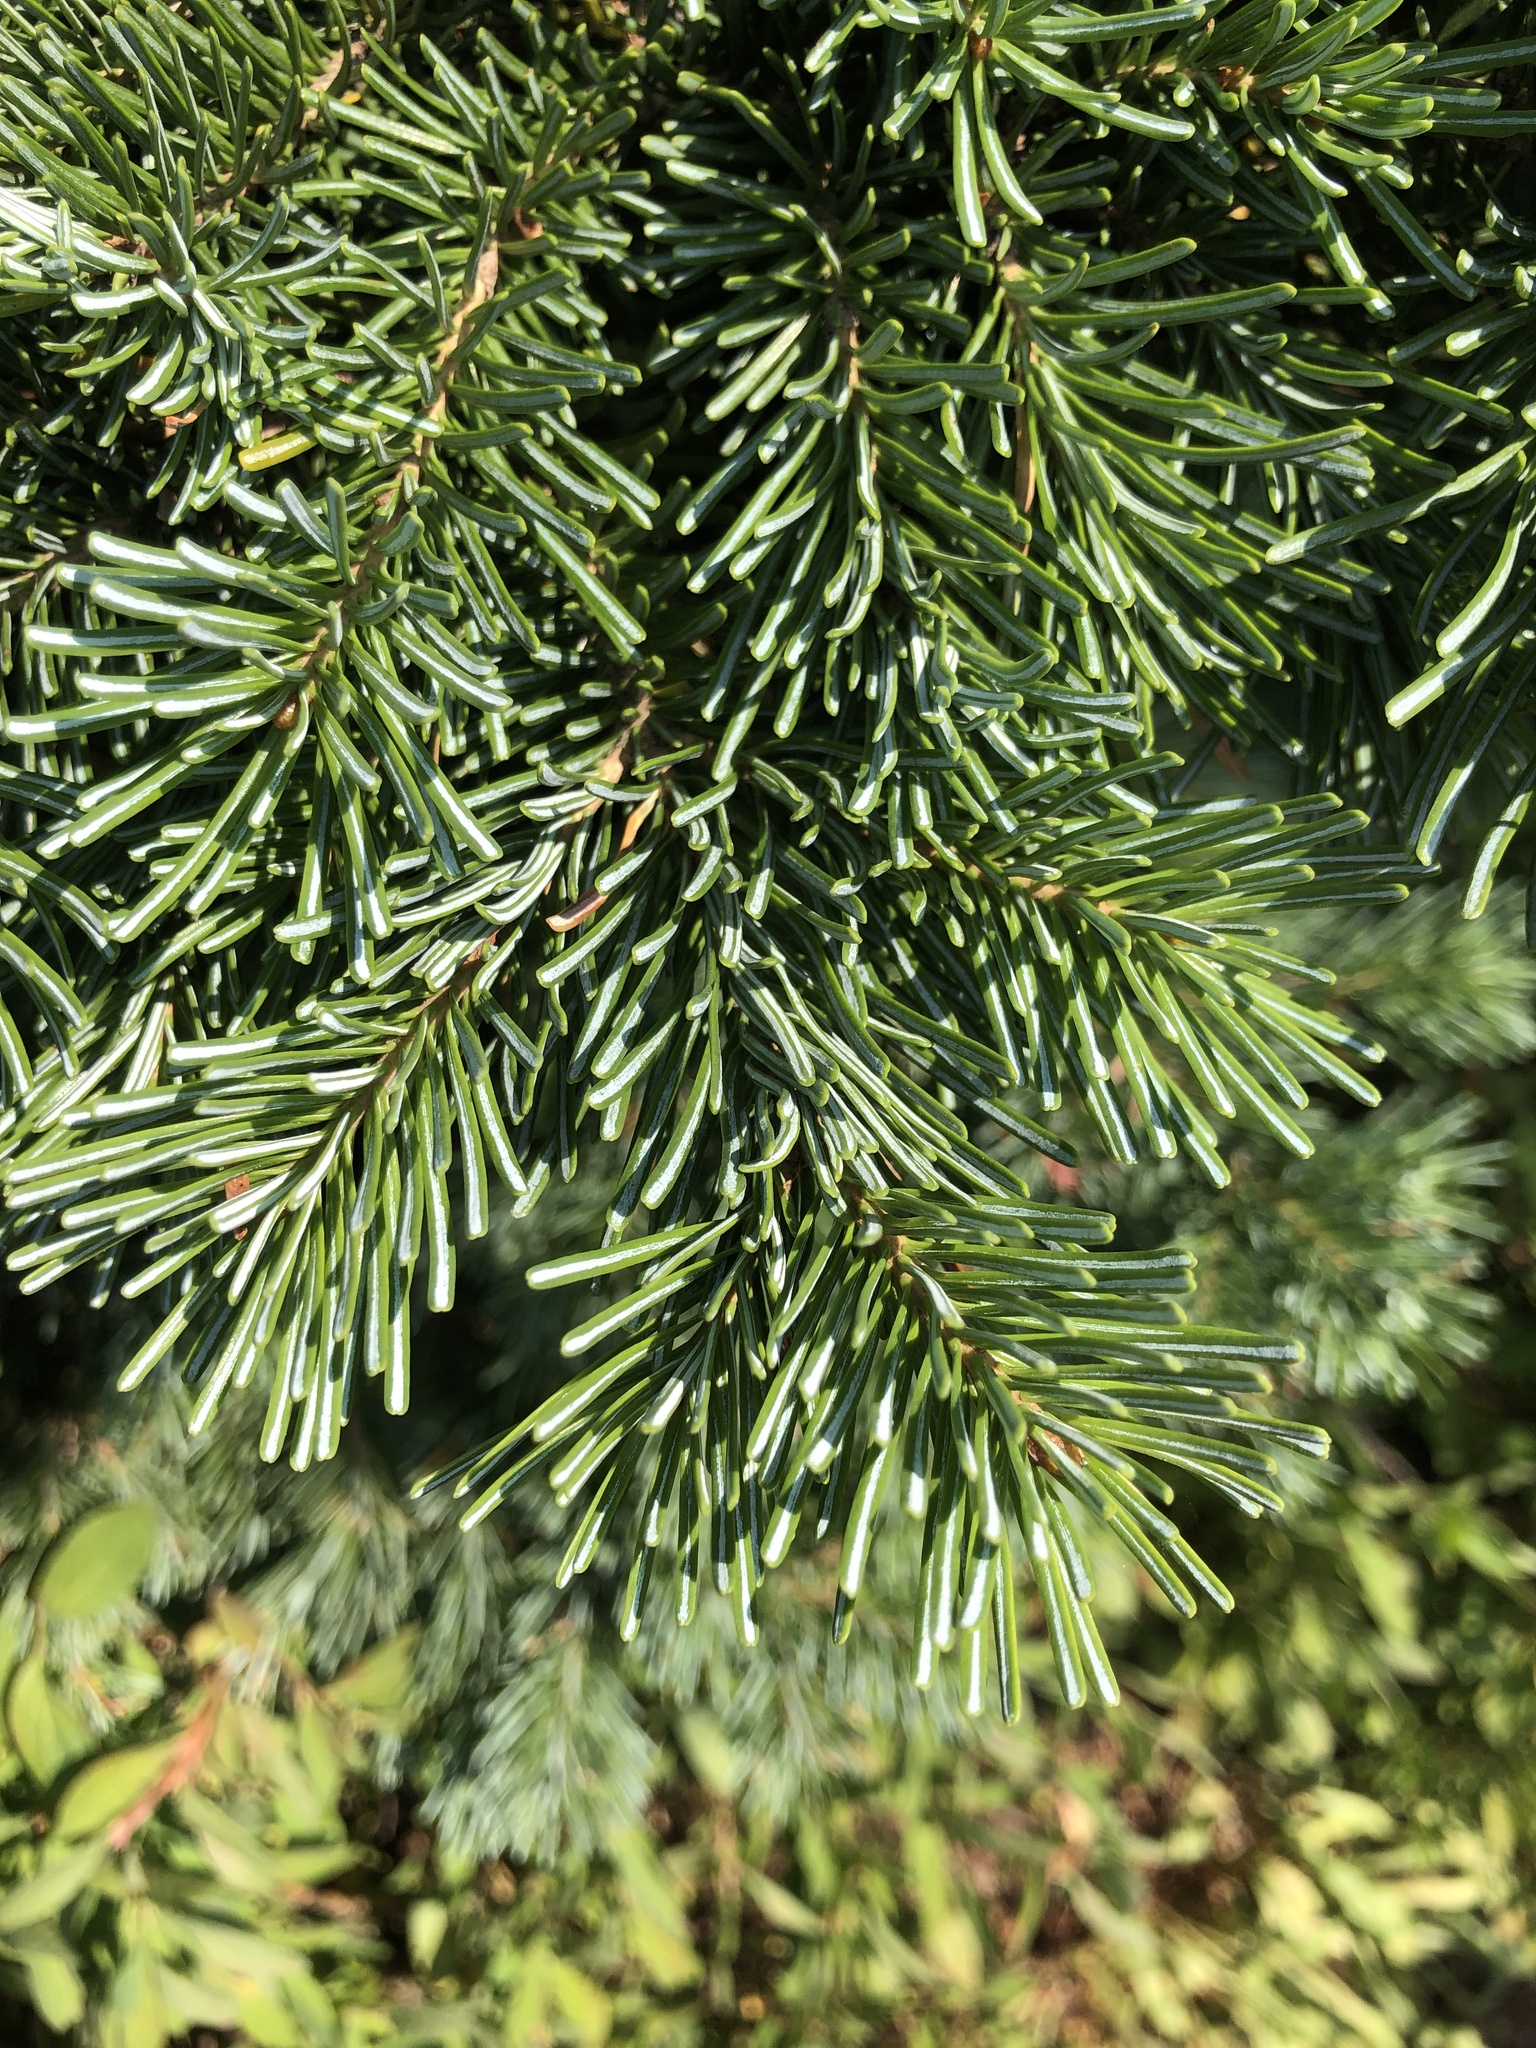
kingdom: Plantae
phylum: Tracheophyta
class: Pinopsida
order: Pinales
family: Pinaceae
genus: Abies
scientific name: Abies lasiocarpa
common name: Subalpine fir
